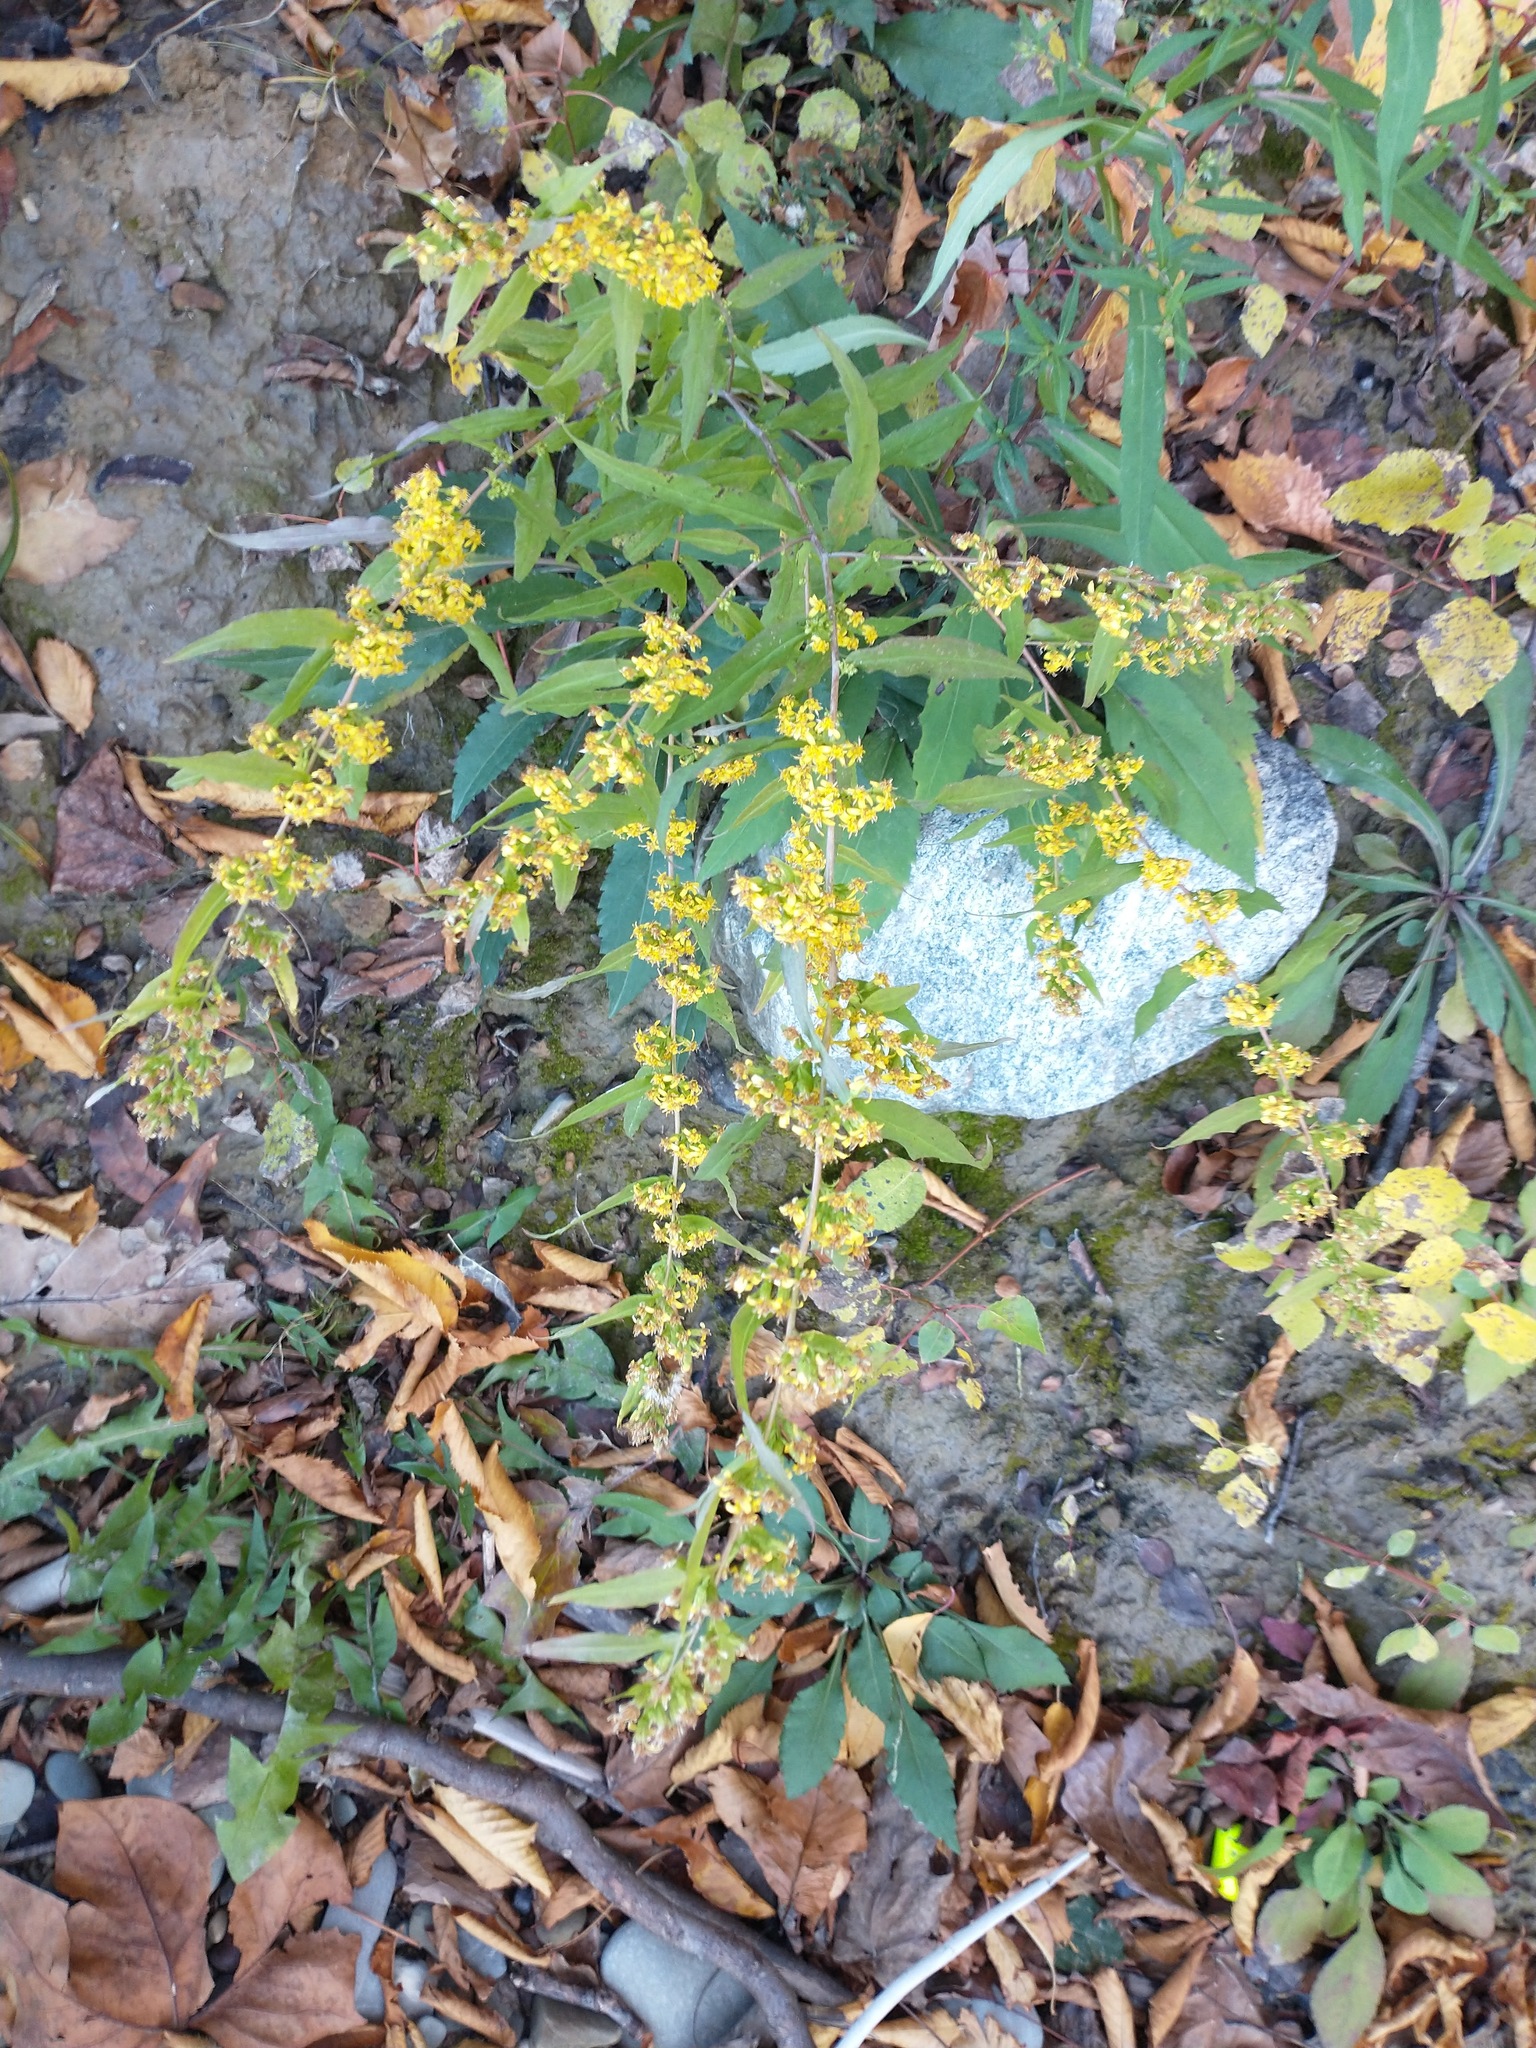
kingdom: Plantae
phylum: Tracheophyta
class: Magnoliopsida
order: Asterales
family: Asteraceae
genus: Solidago
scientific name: Solidago caesia
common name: Woodland goldenrod
